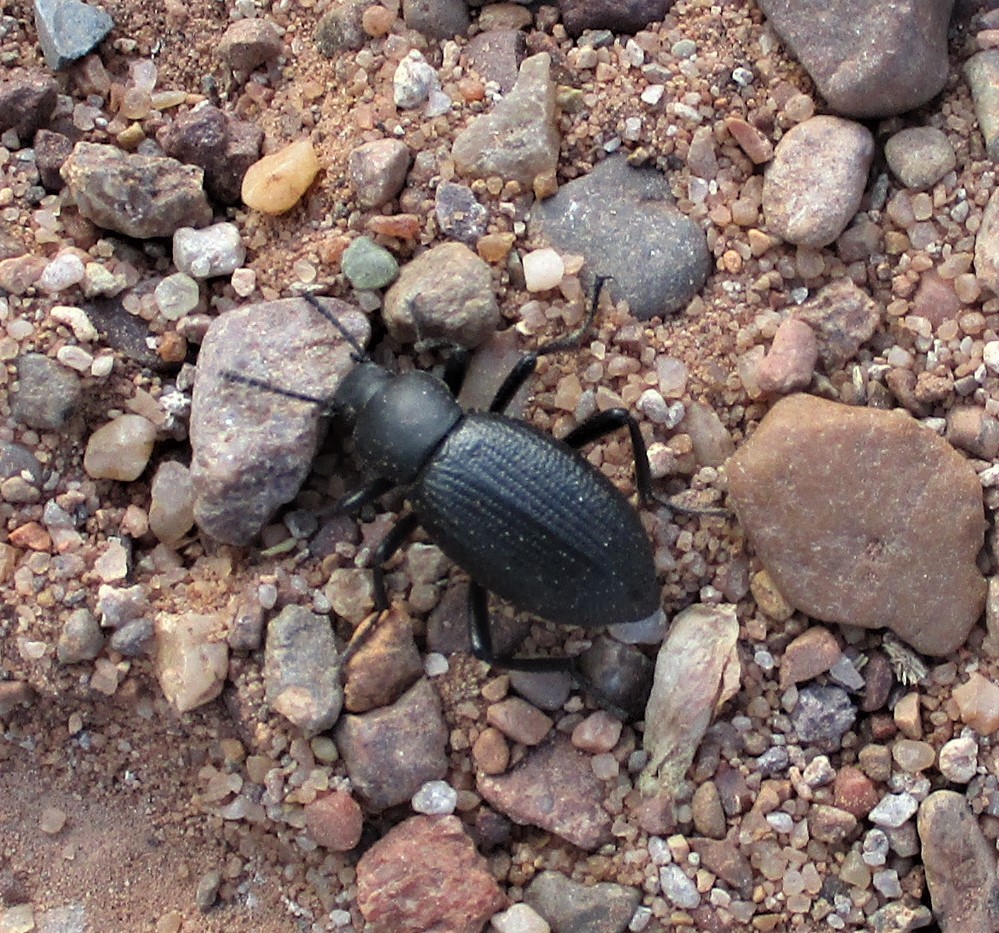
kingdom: Animalia
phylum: Arthropoda
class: Insecta
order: Coleoptera
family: Tenebrionidae
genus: Eleodes
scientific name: Eleodes carbonaria
